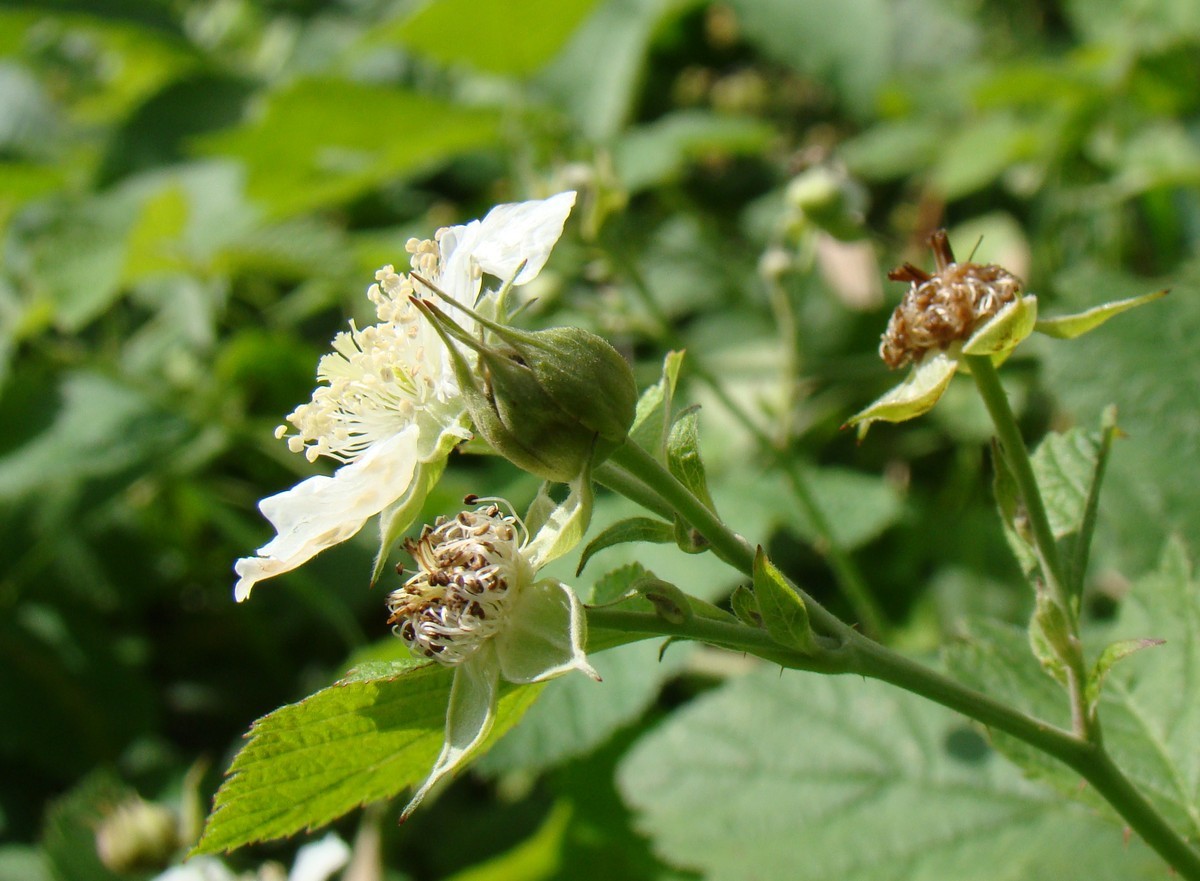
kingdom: Plantae
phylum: Tracheophyta
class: Magnoliopsida
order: Rosales
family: Rosaceae
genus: Rubus
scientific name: Rubus caesius
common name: Dewberry
